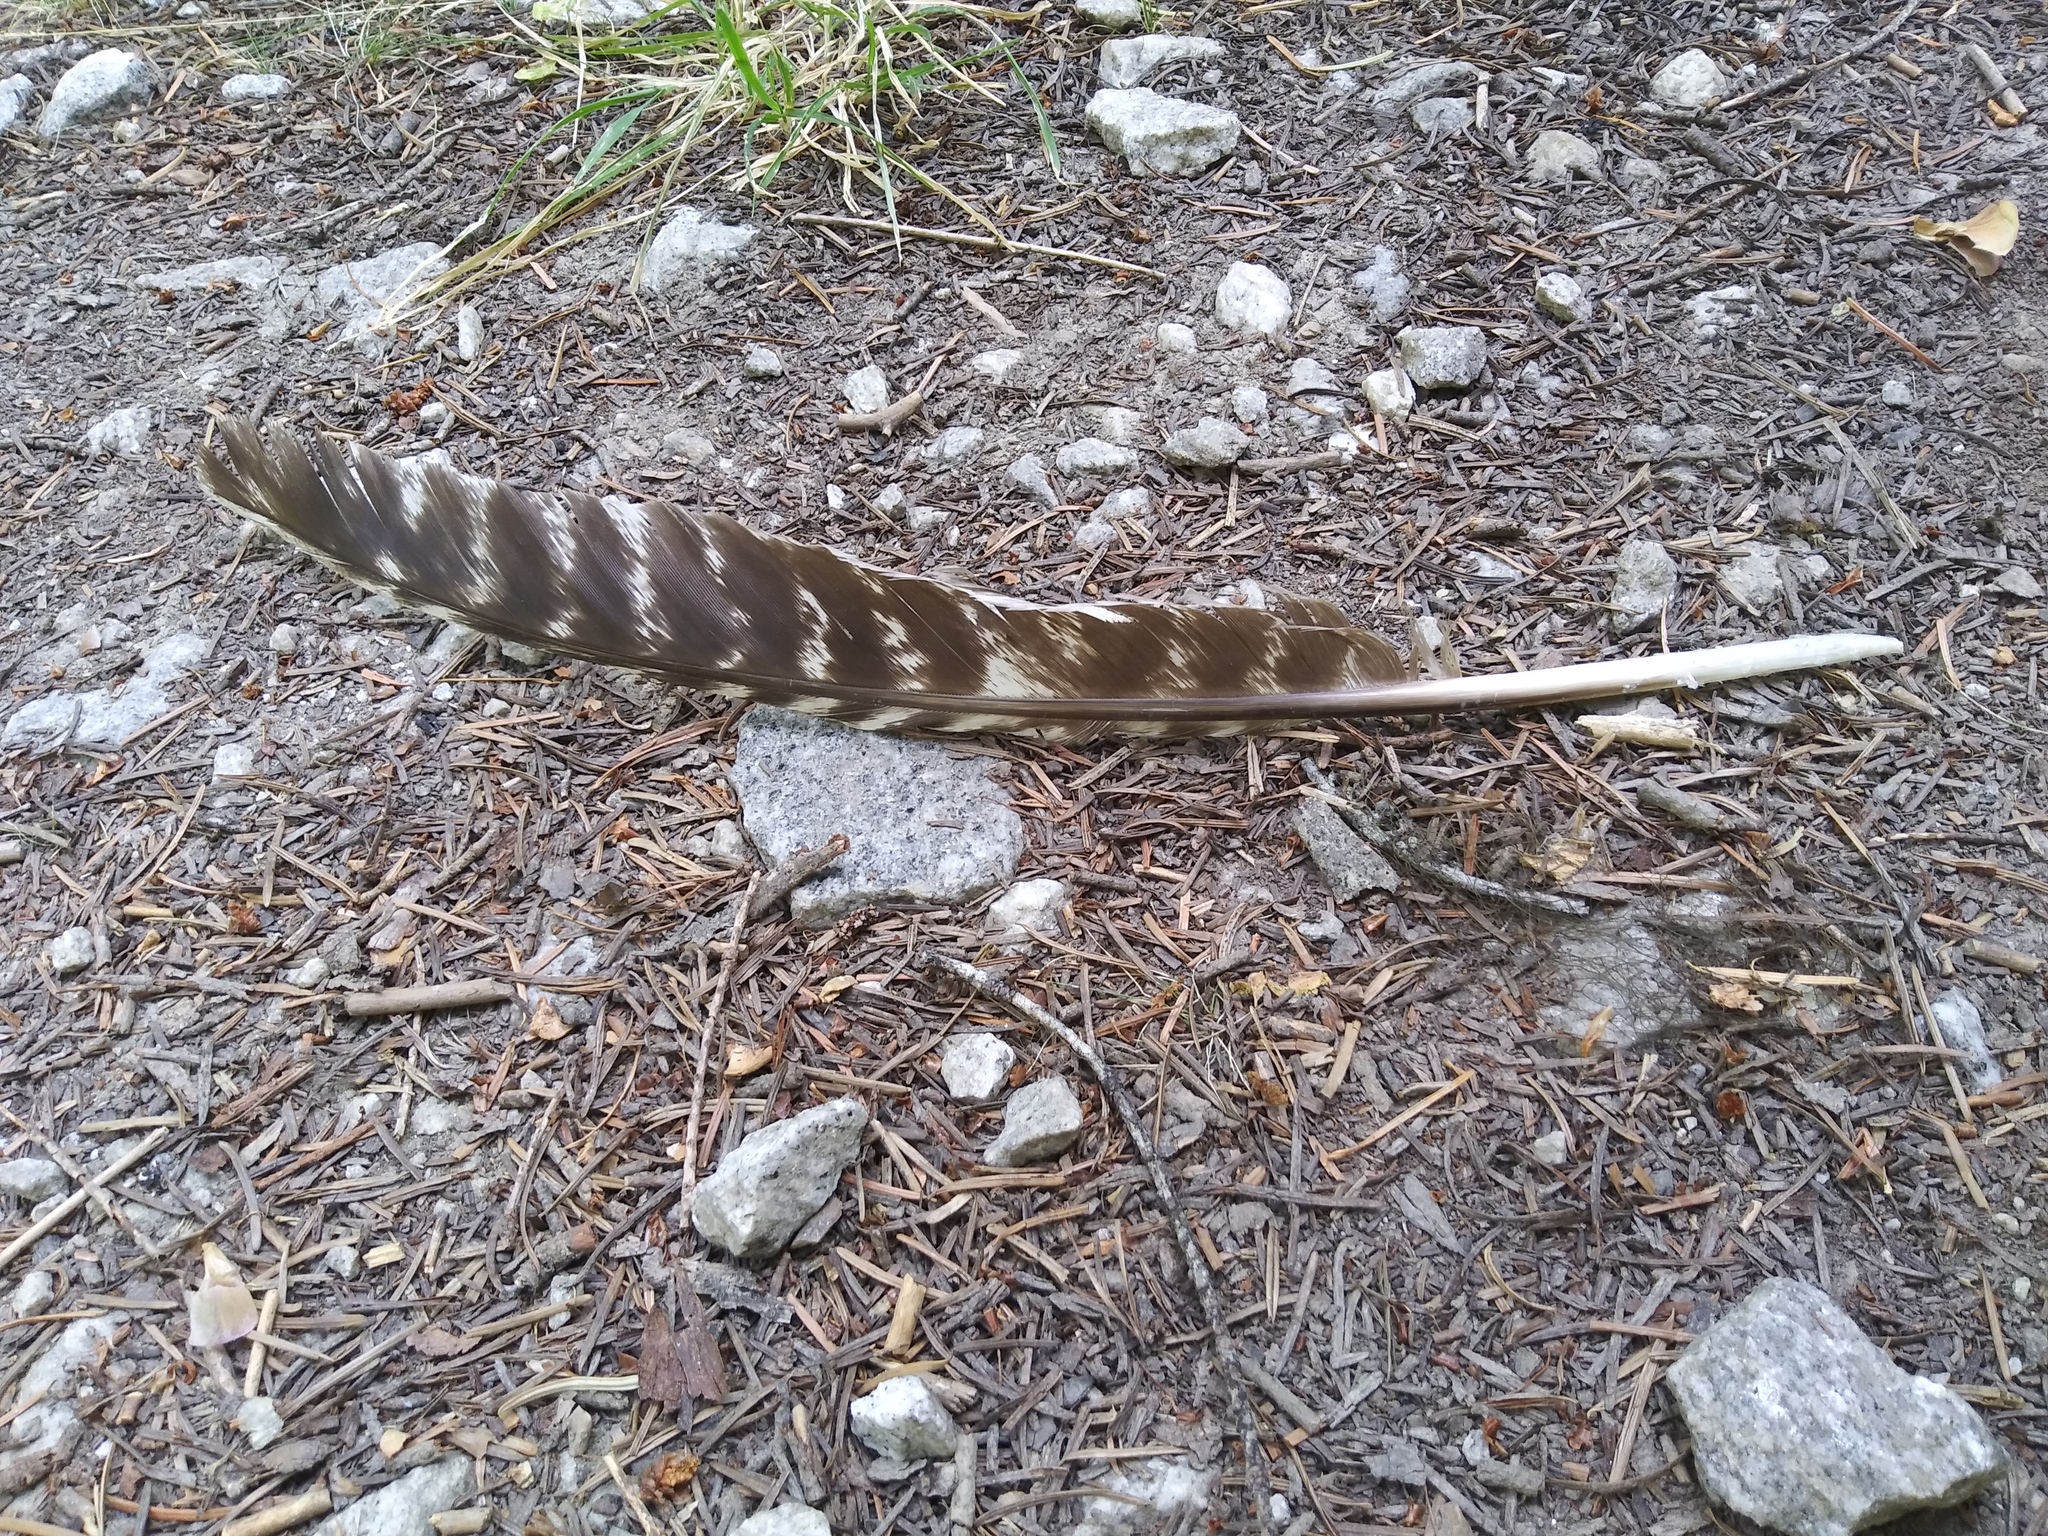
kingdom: Animalia
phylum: Chordata
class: Aves
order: Galliformes
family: Phasianidae
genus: Meleagris
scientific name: Meleagris gallopavo
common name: Wild turkey
